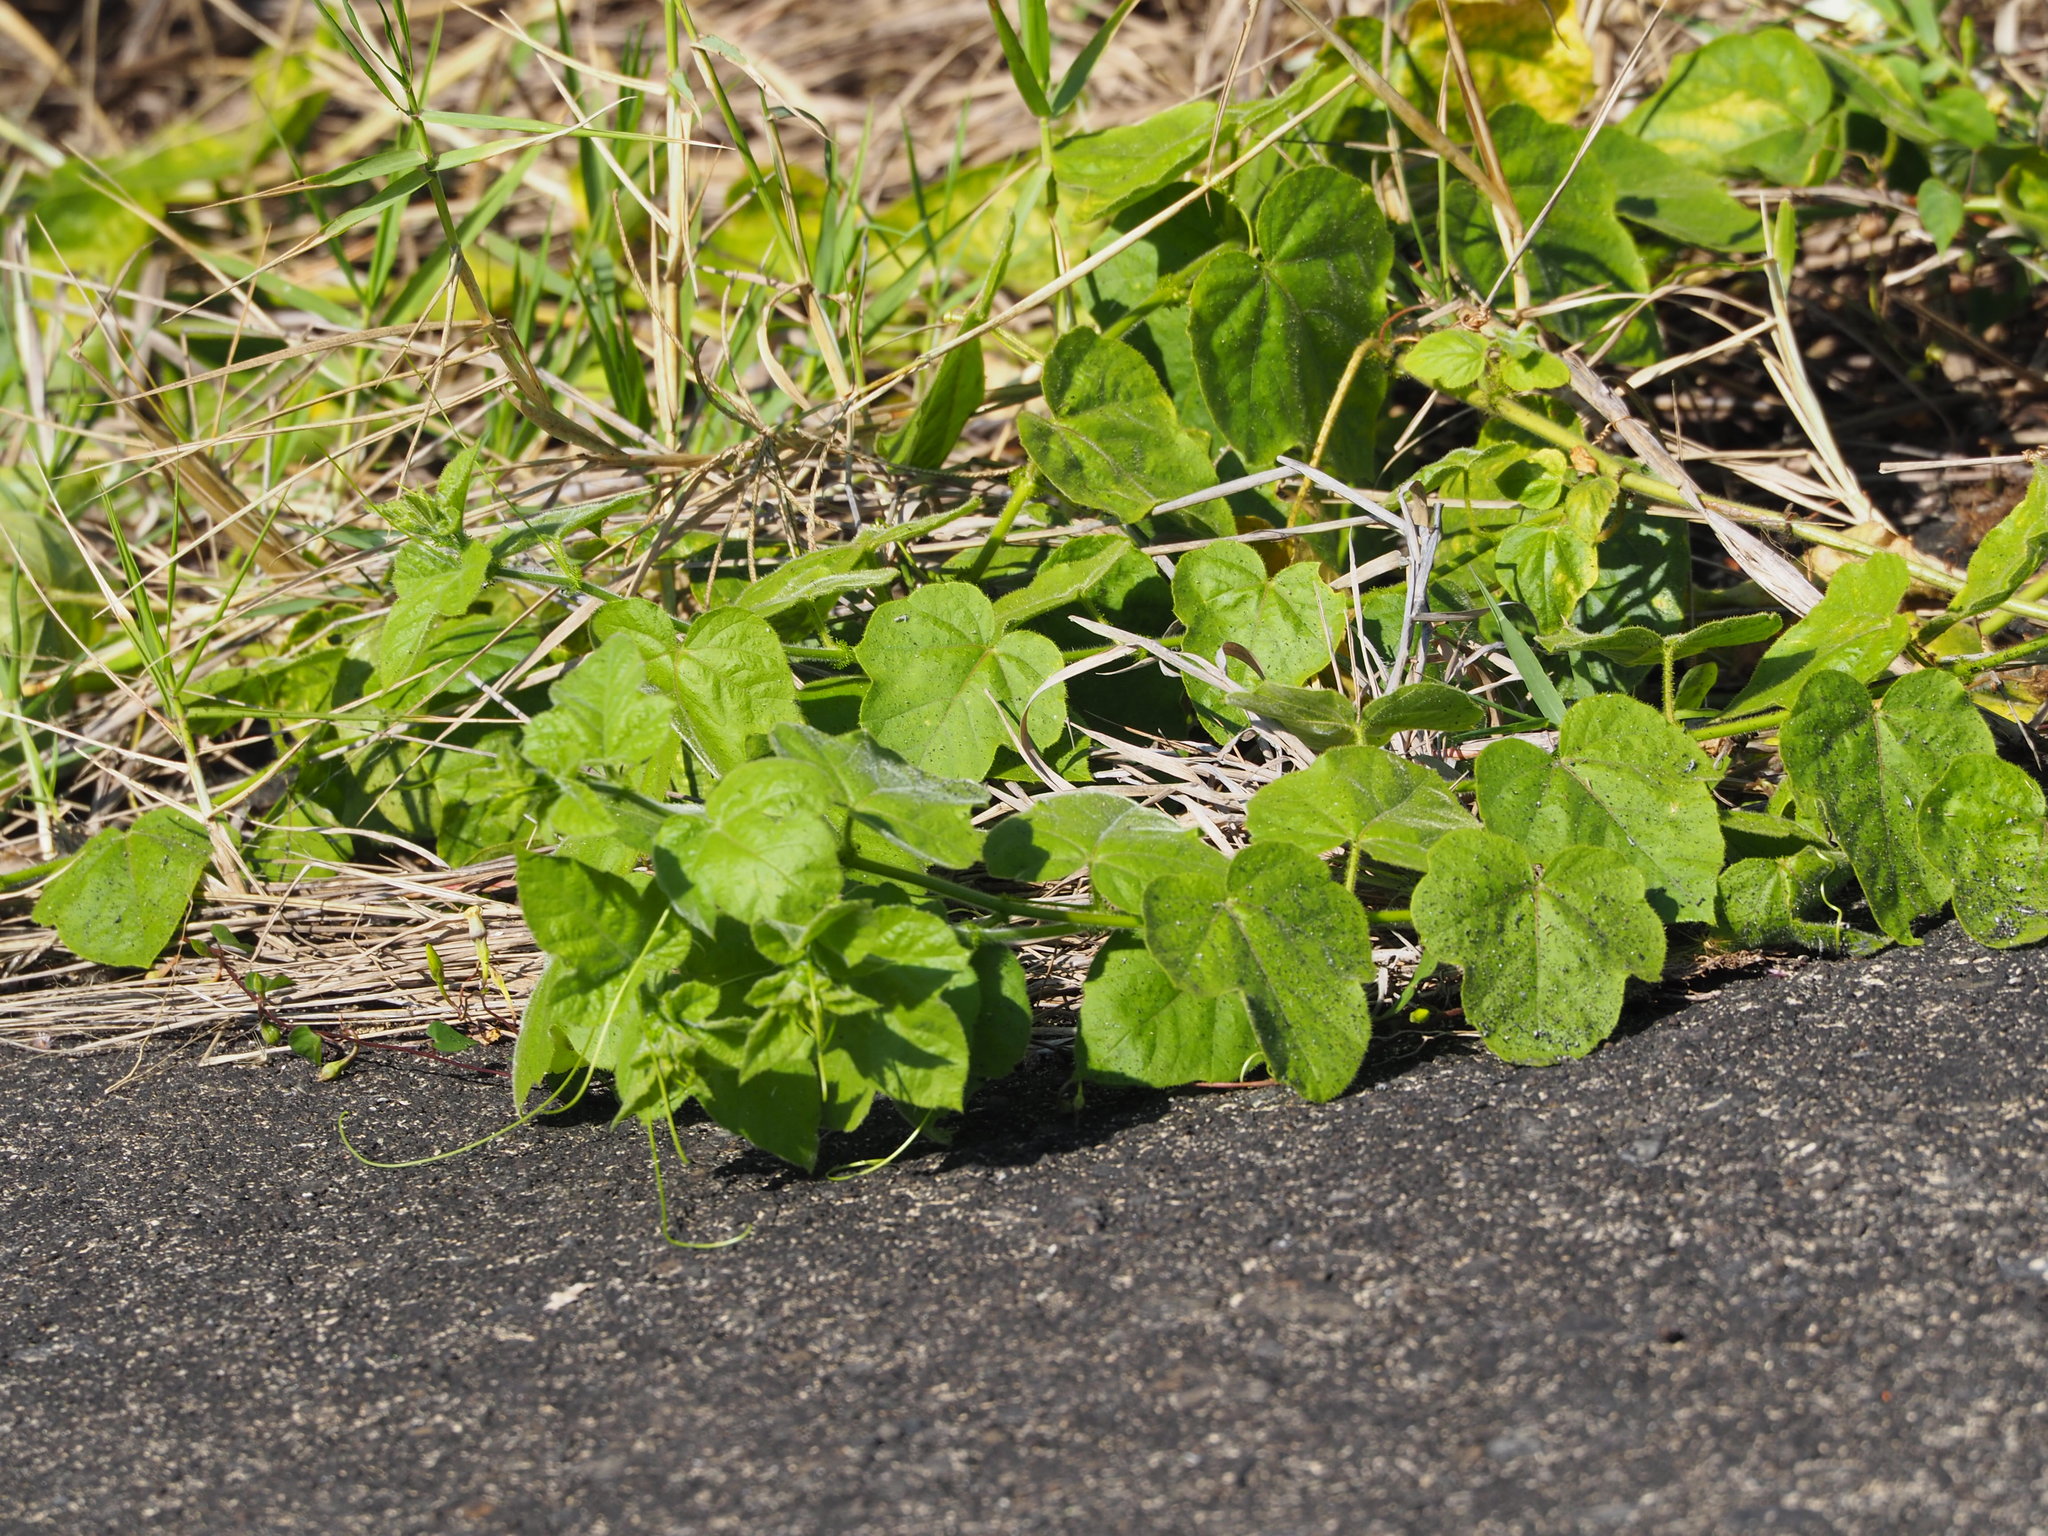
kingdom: Plantae
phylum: Tracheophyta
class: Magnoliopsida
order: Malpighiales
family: Passifloraceae
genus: Passiflora
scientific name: Passiflora vesicaria
